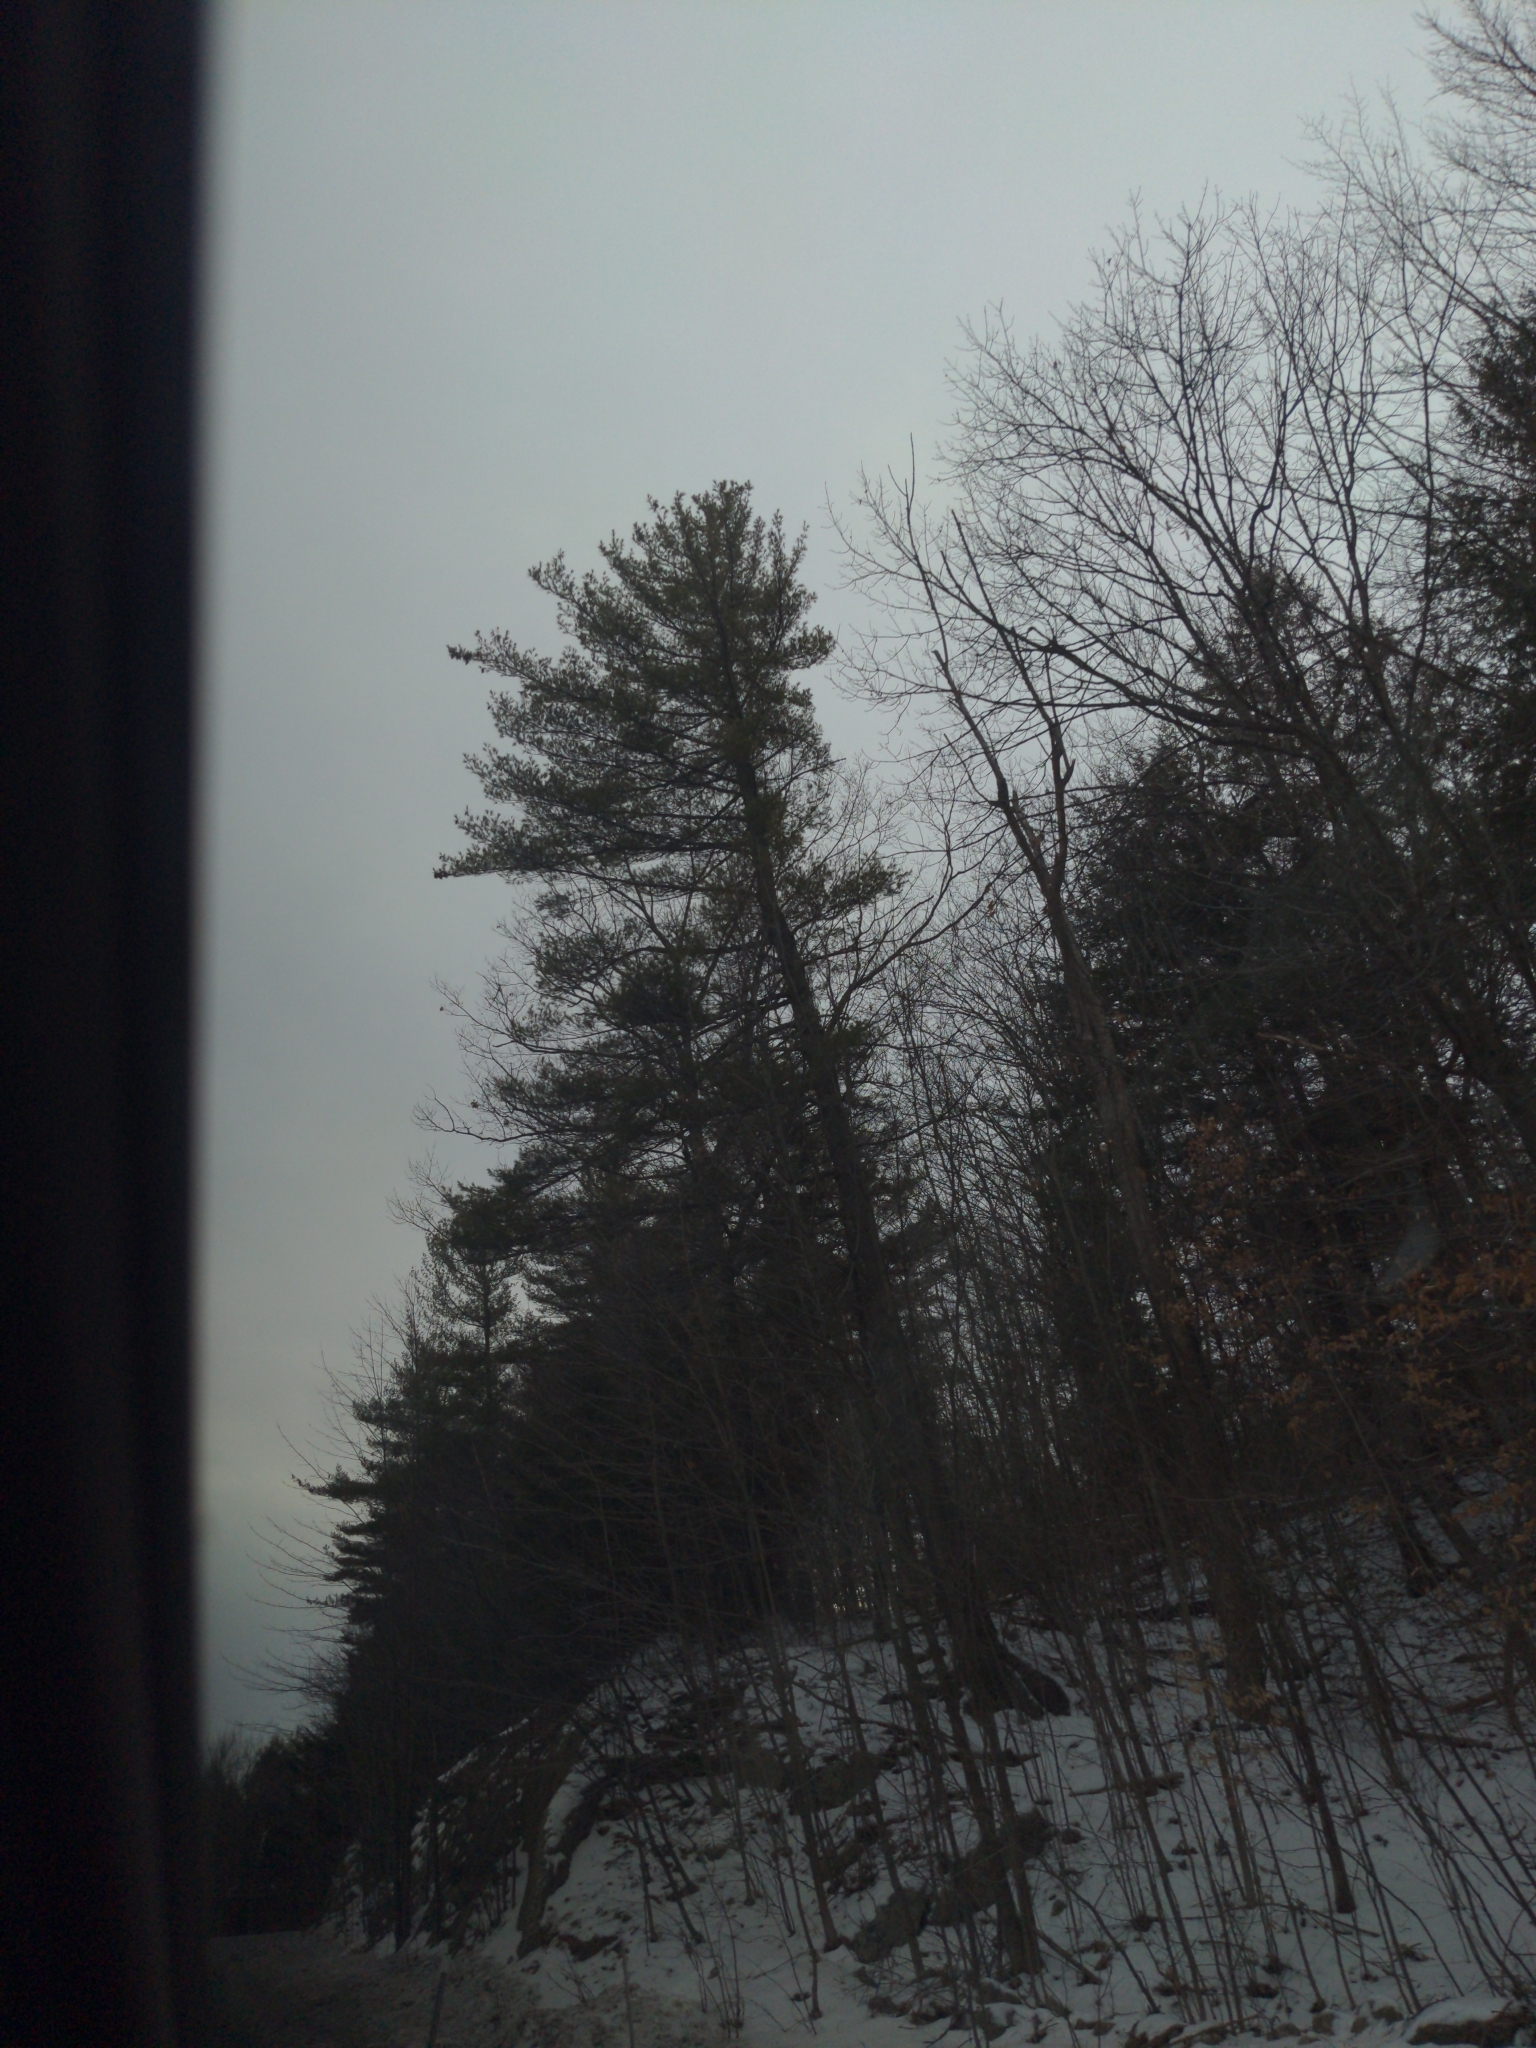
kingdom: Plantae
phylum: Tracheophyta
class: Pinopsida
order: Pinales
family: Pinaceae
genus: Pinus
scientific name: Pinus strobus
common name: Weymouth pine
